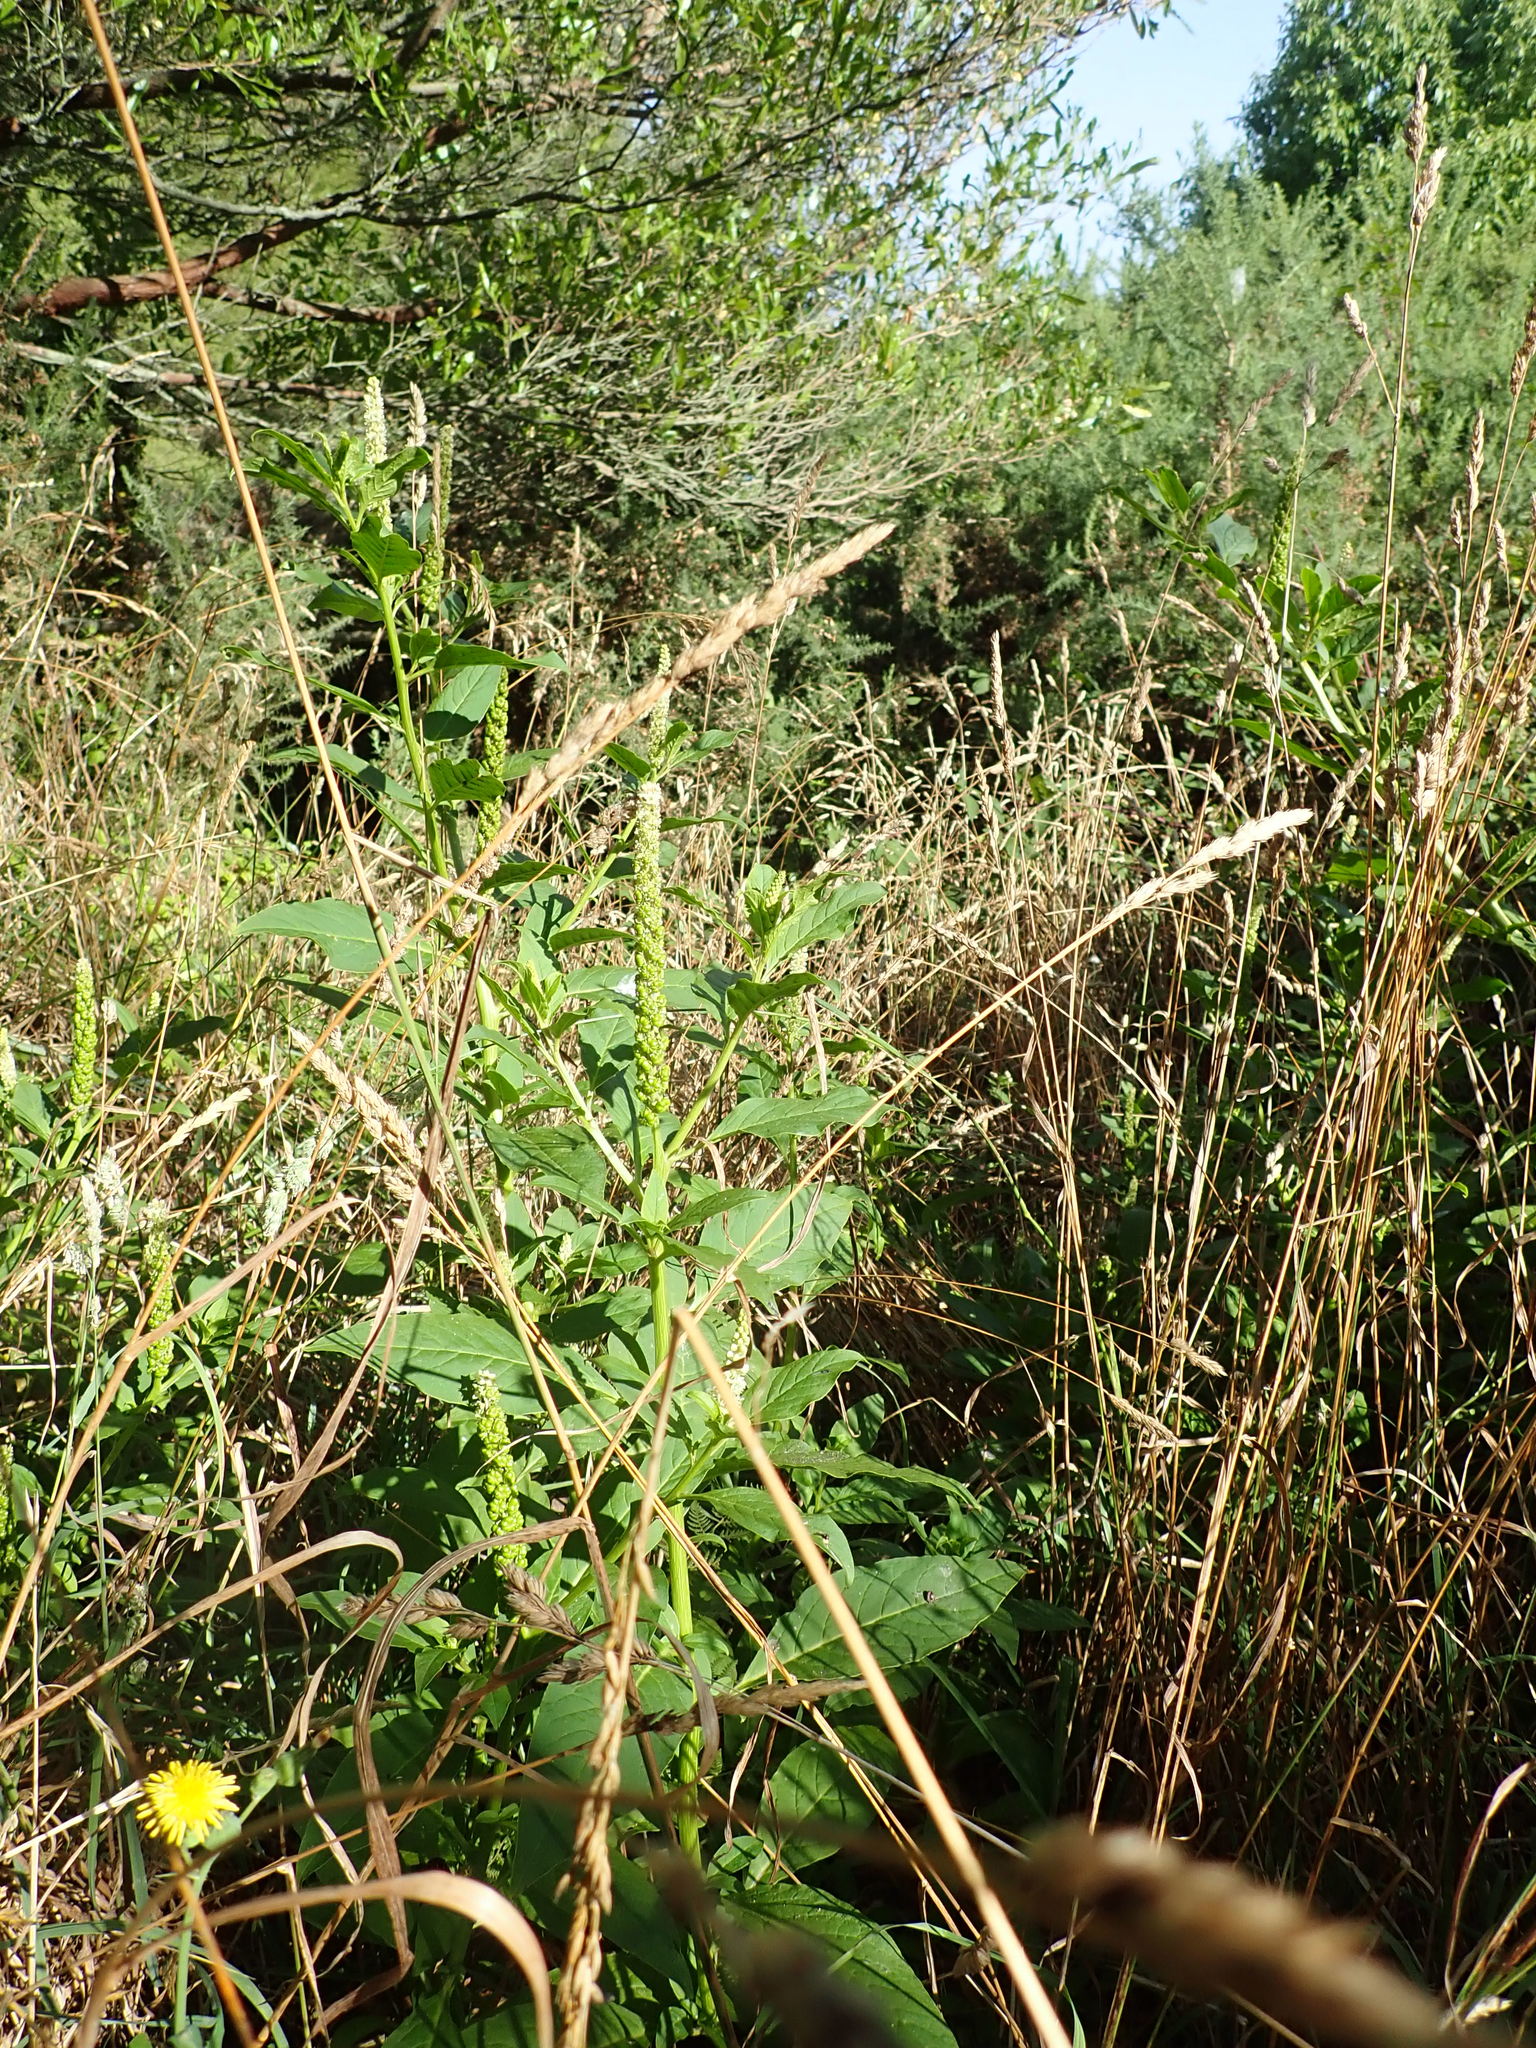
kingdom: Plantae
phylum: Tracheophyta
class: Magnoliopsida
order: Caryophyllales
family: Phytolaccaceae
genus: Phytolacca
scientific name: Phytolacca icosandra
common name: Button pokeweed
